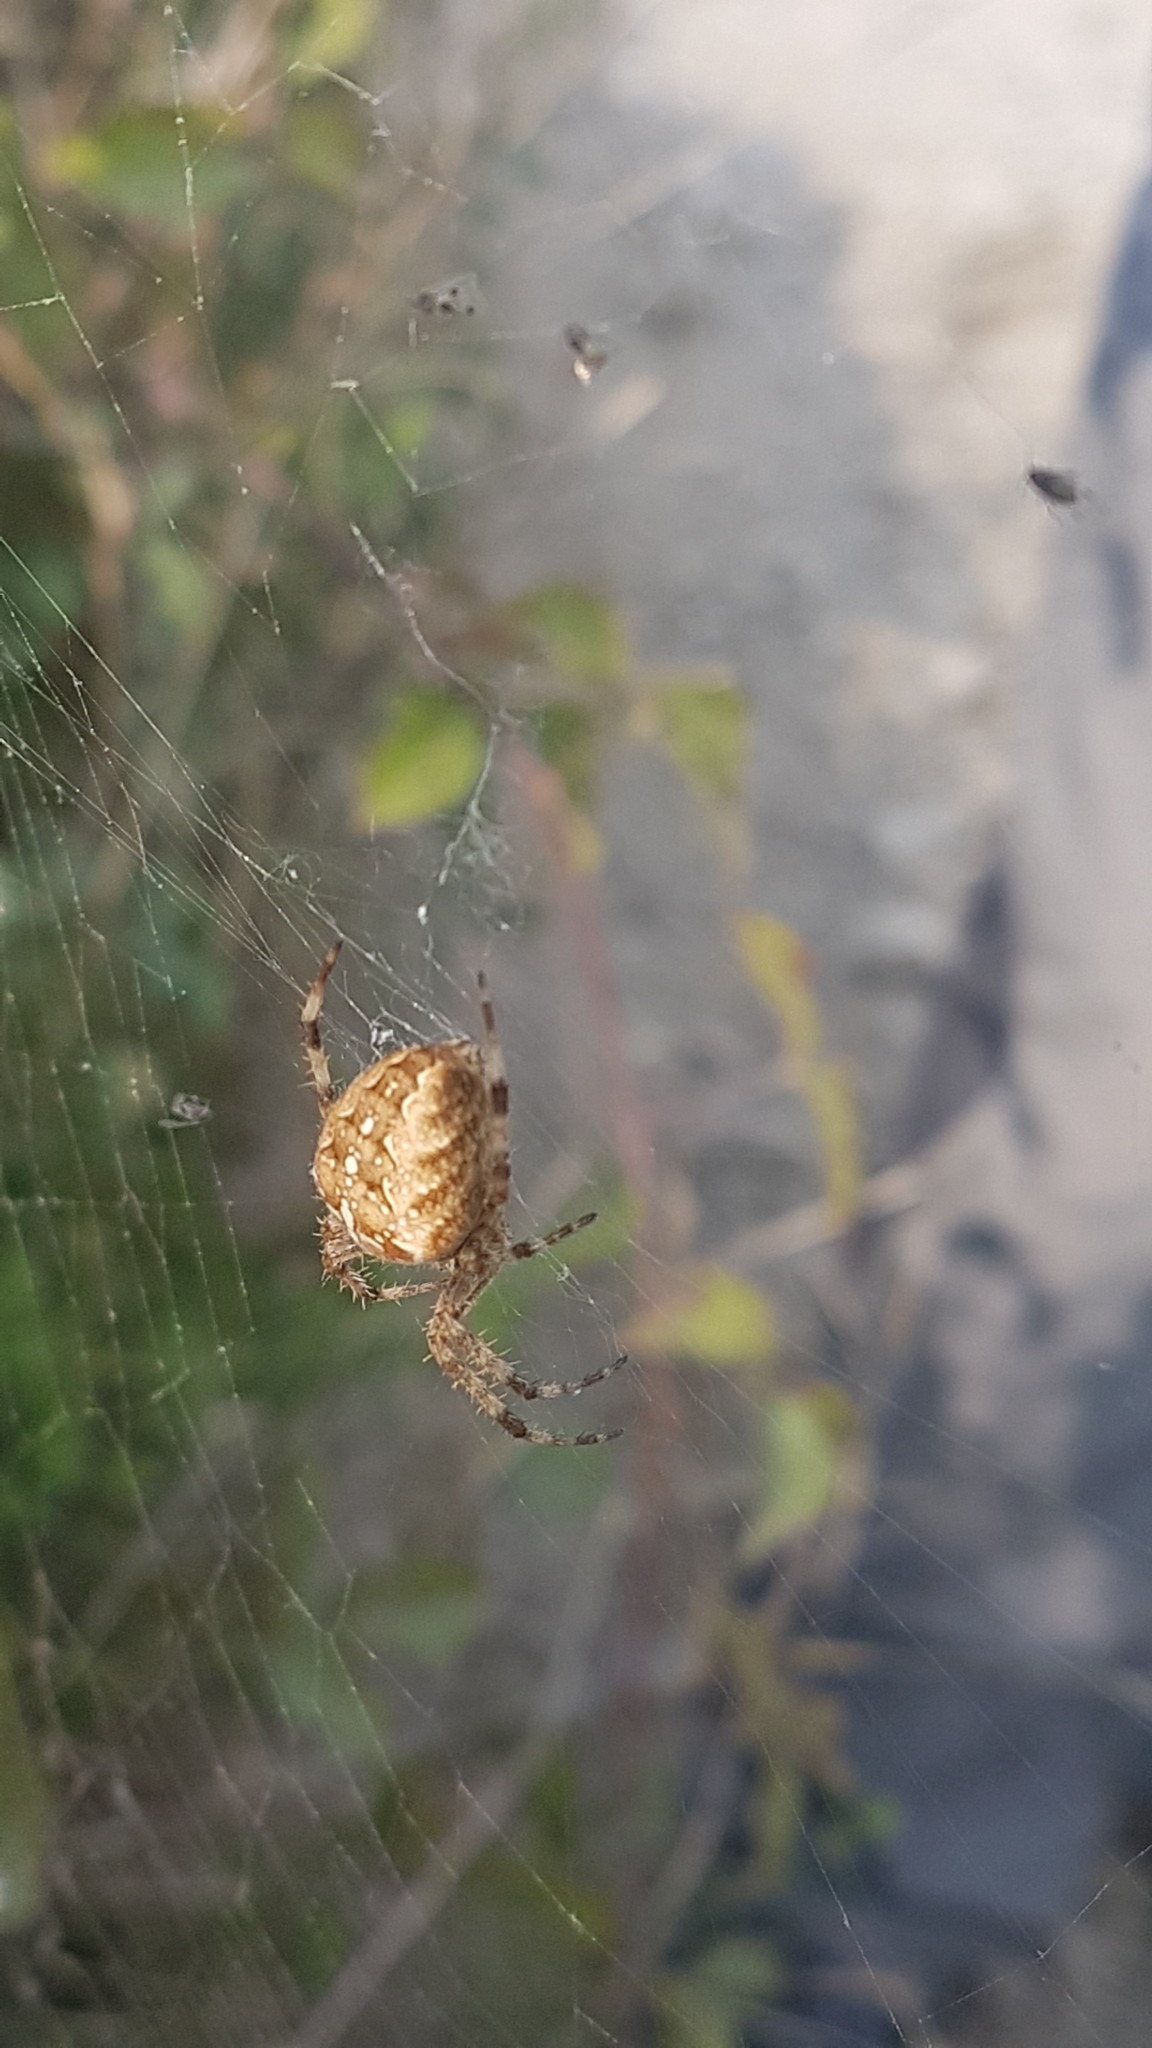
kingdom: Animalia
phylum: Arthropoda
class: Arachnida
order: Araneae
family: Araneidae
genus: Araneus
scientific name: Araneus diadematus
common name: Cross orbweaver
